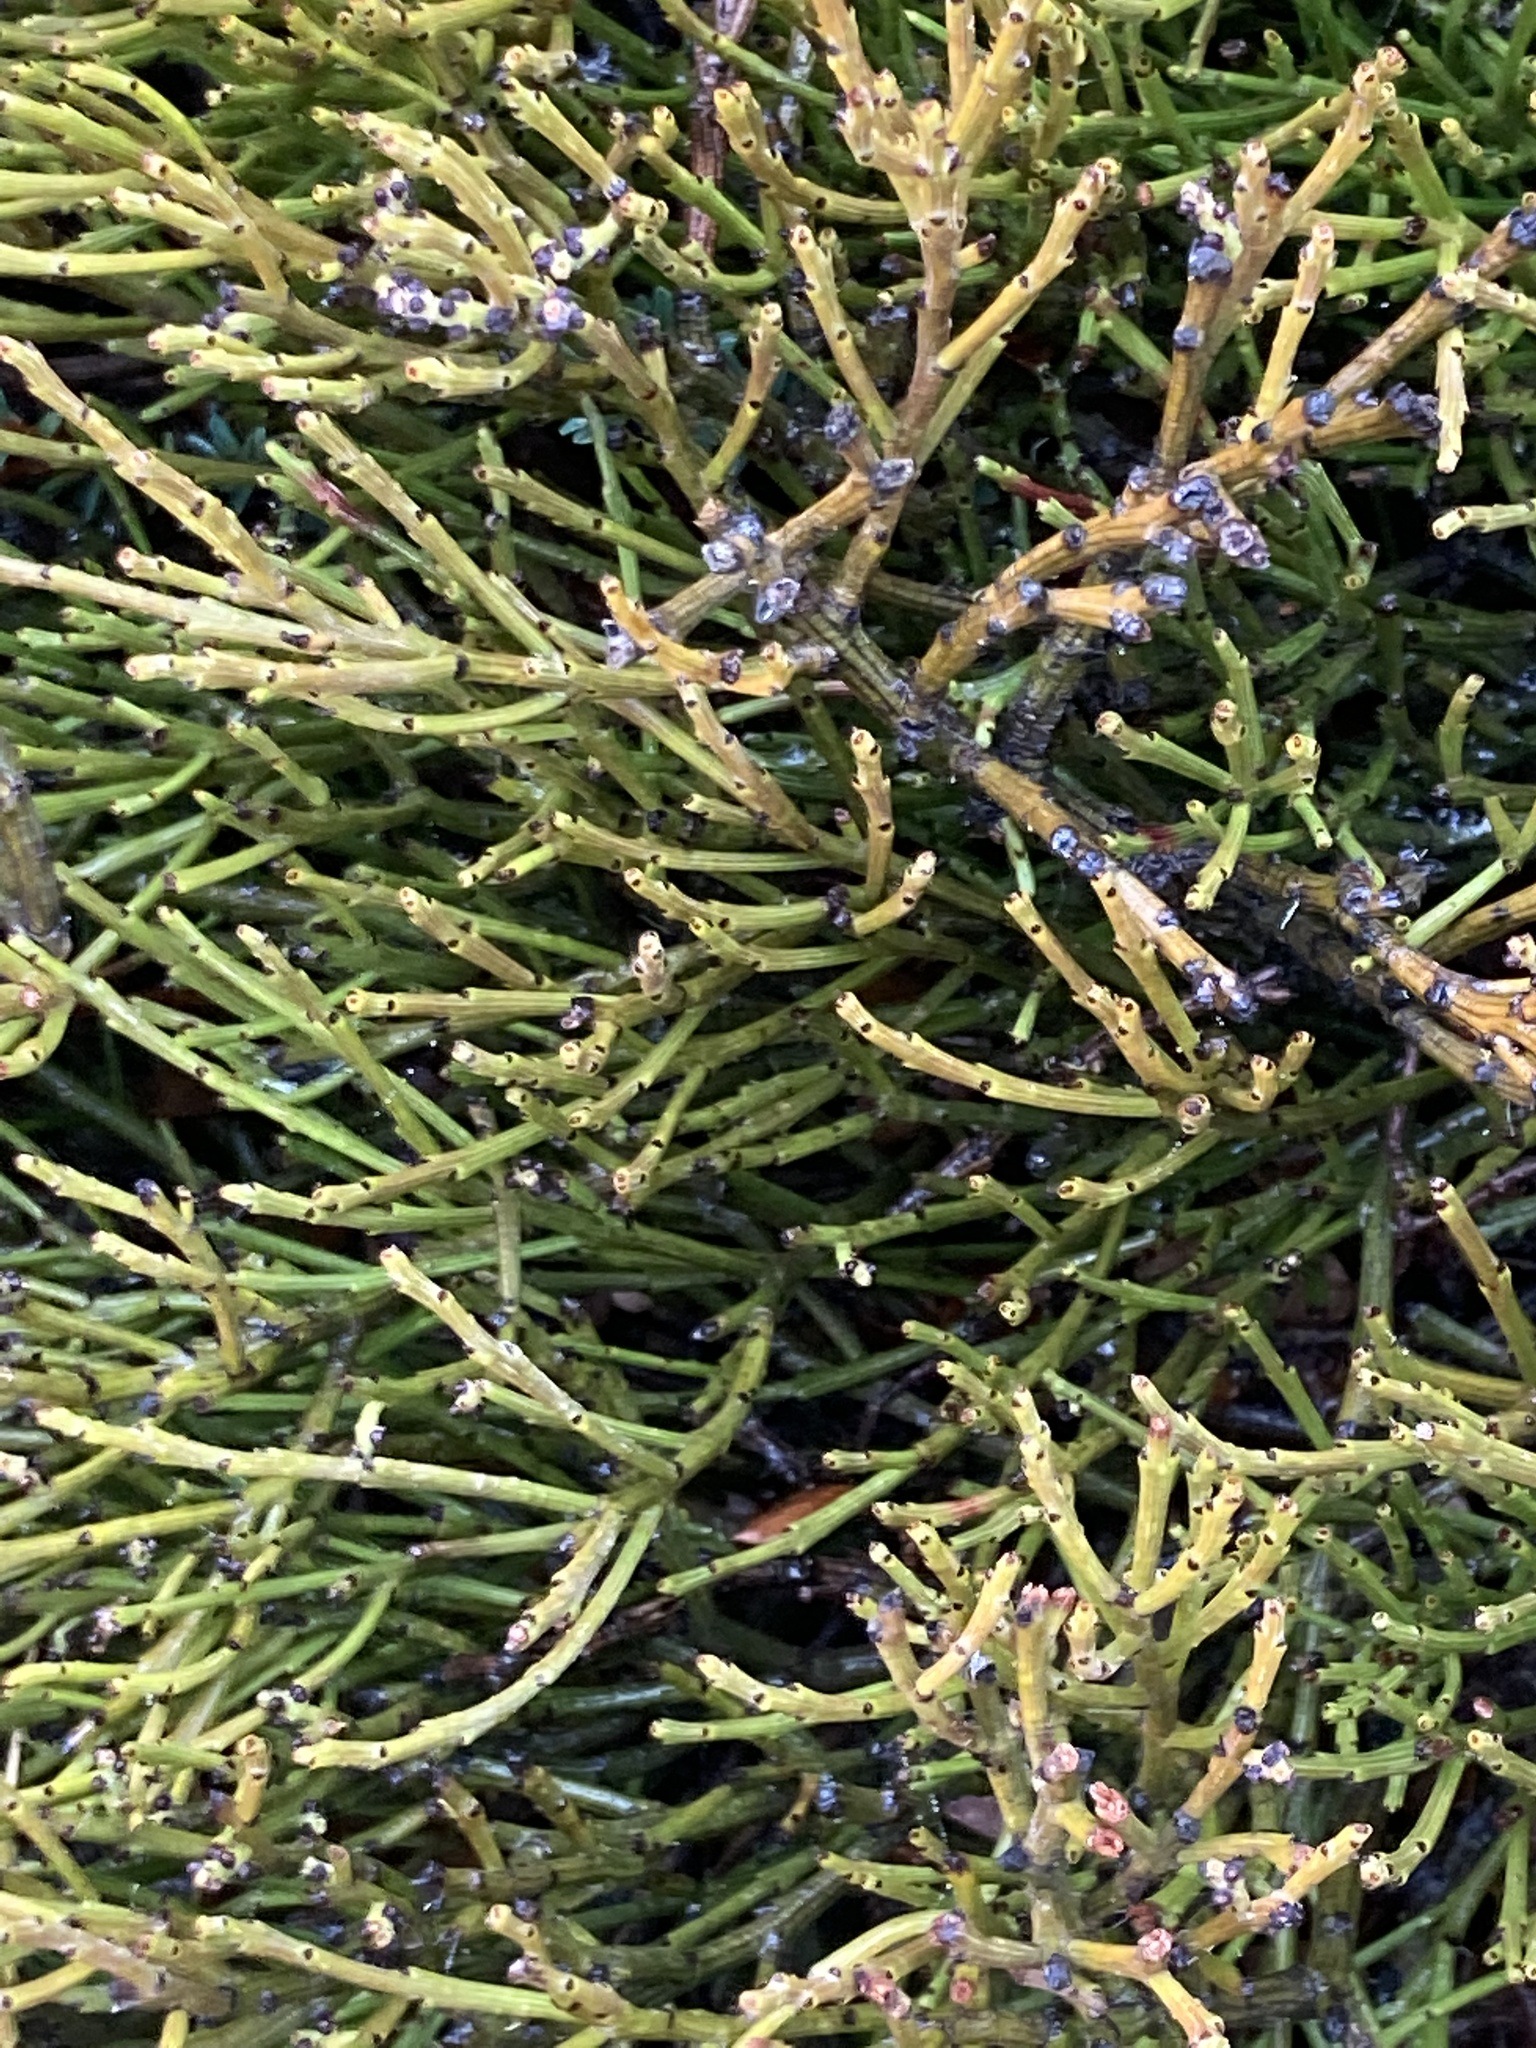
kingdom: Plantae
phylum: Tracheophyta
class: Magnoliopsida
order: Santalales
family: Santalaceae
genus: Exocarpos
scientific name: Exocarpos bidwillii
